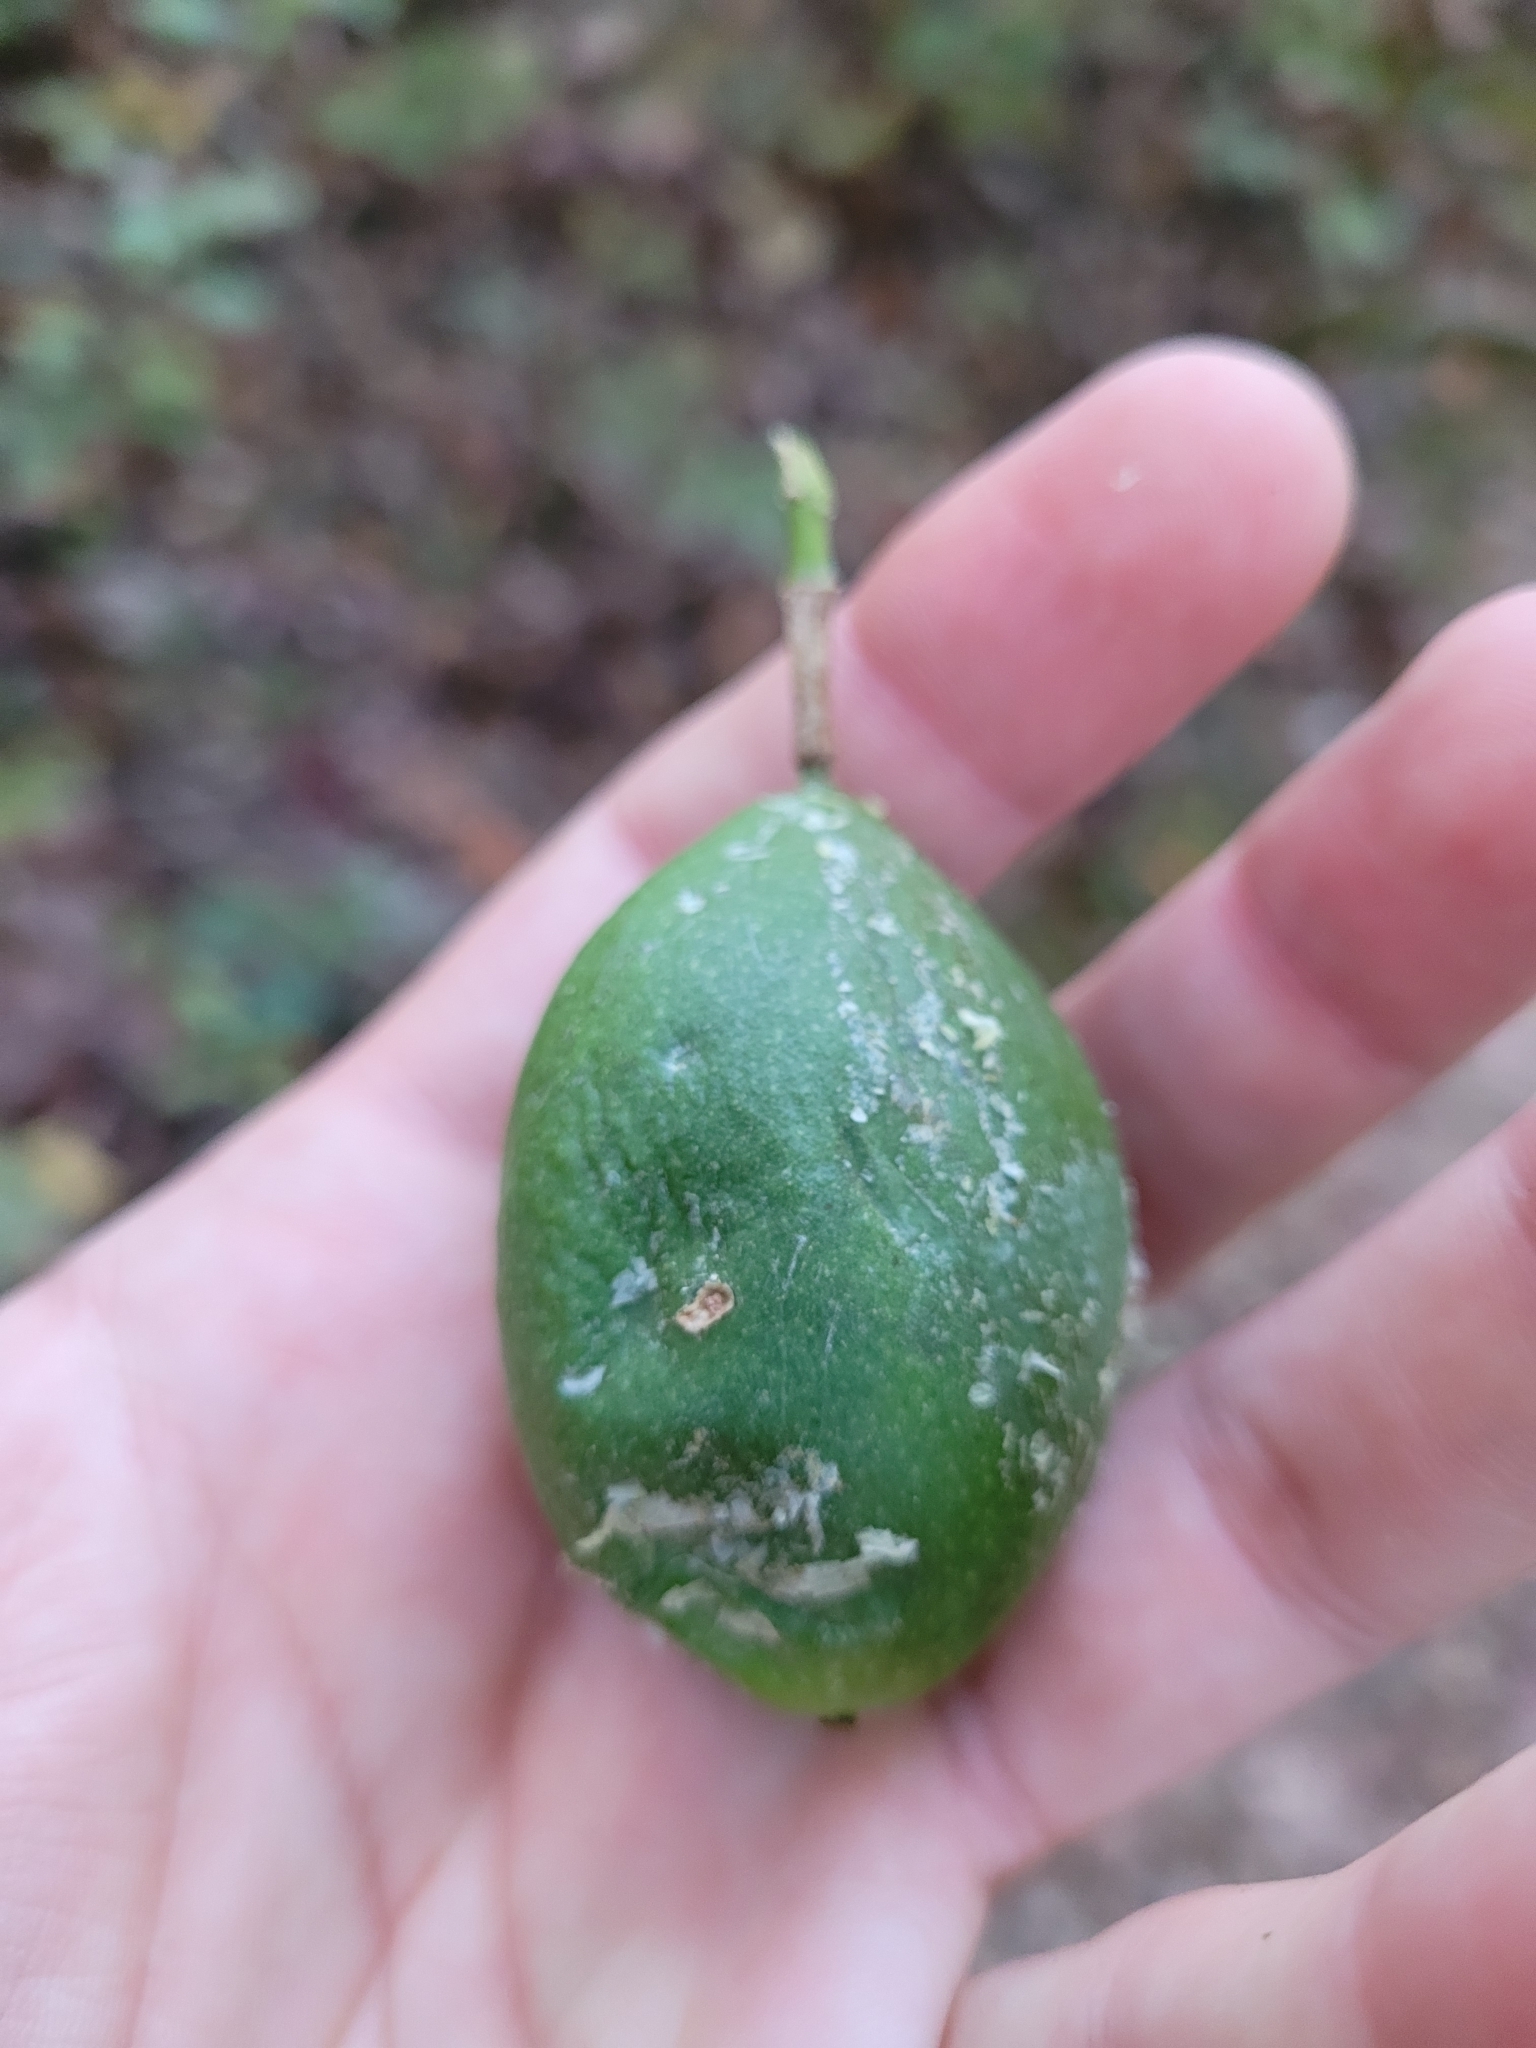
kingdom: Plantae
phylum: Tracheophyta
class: Magnoliopsida
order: Malpighiales
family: Passifloraceae
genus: Passiflora
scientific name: Passiflora incarnata
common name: Apricot-vine
